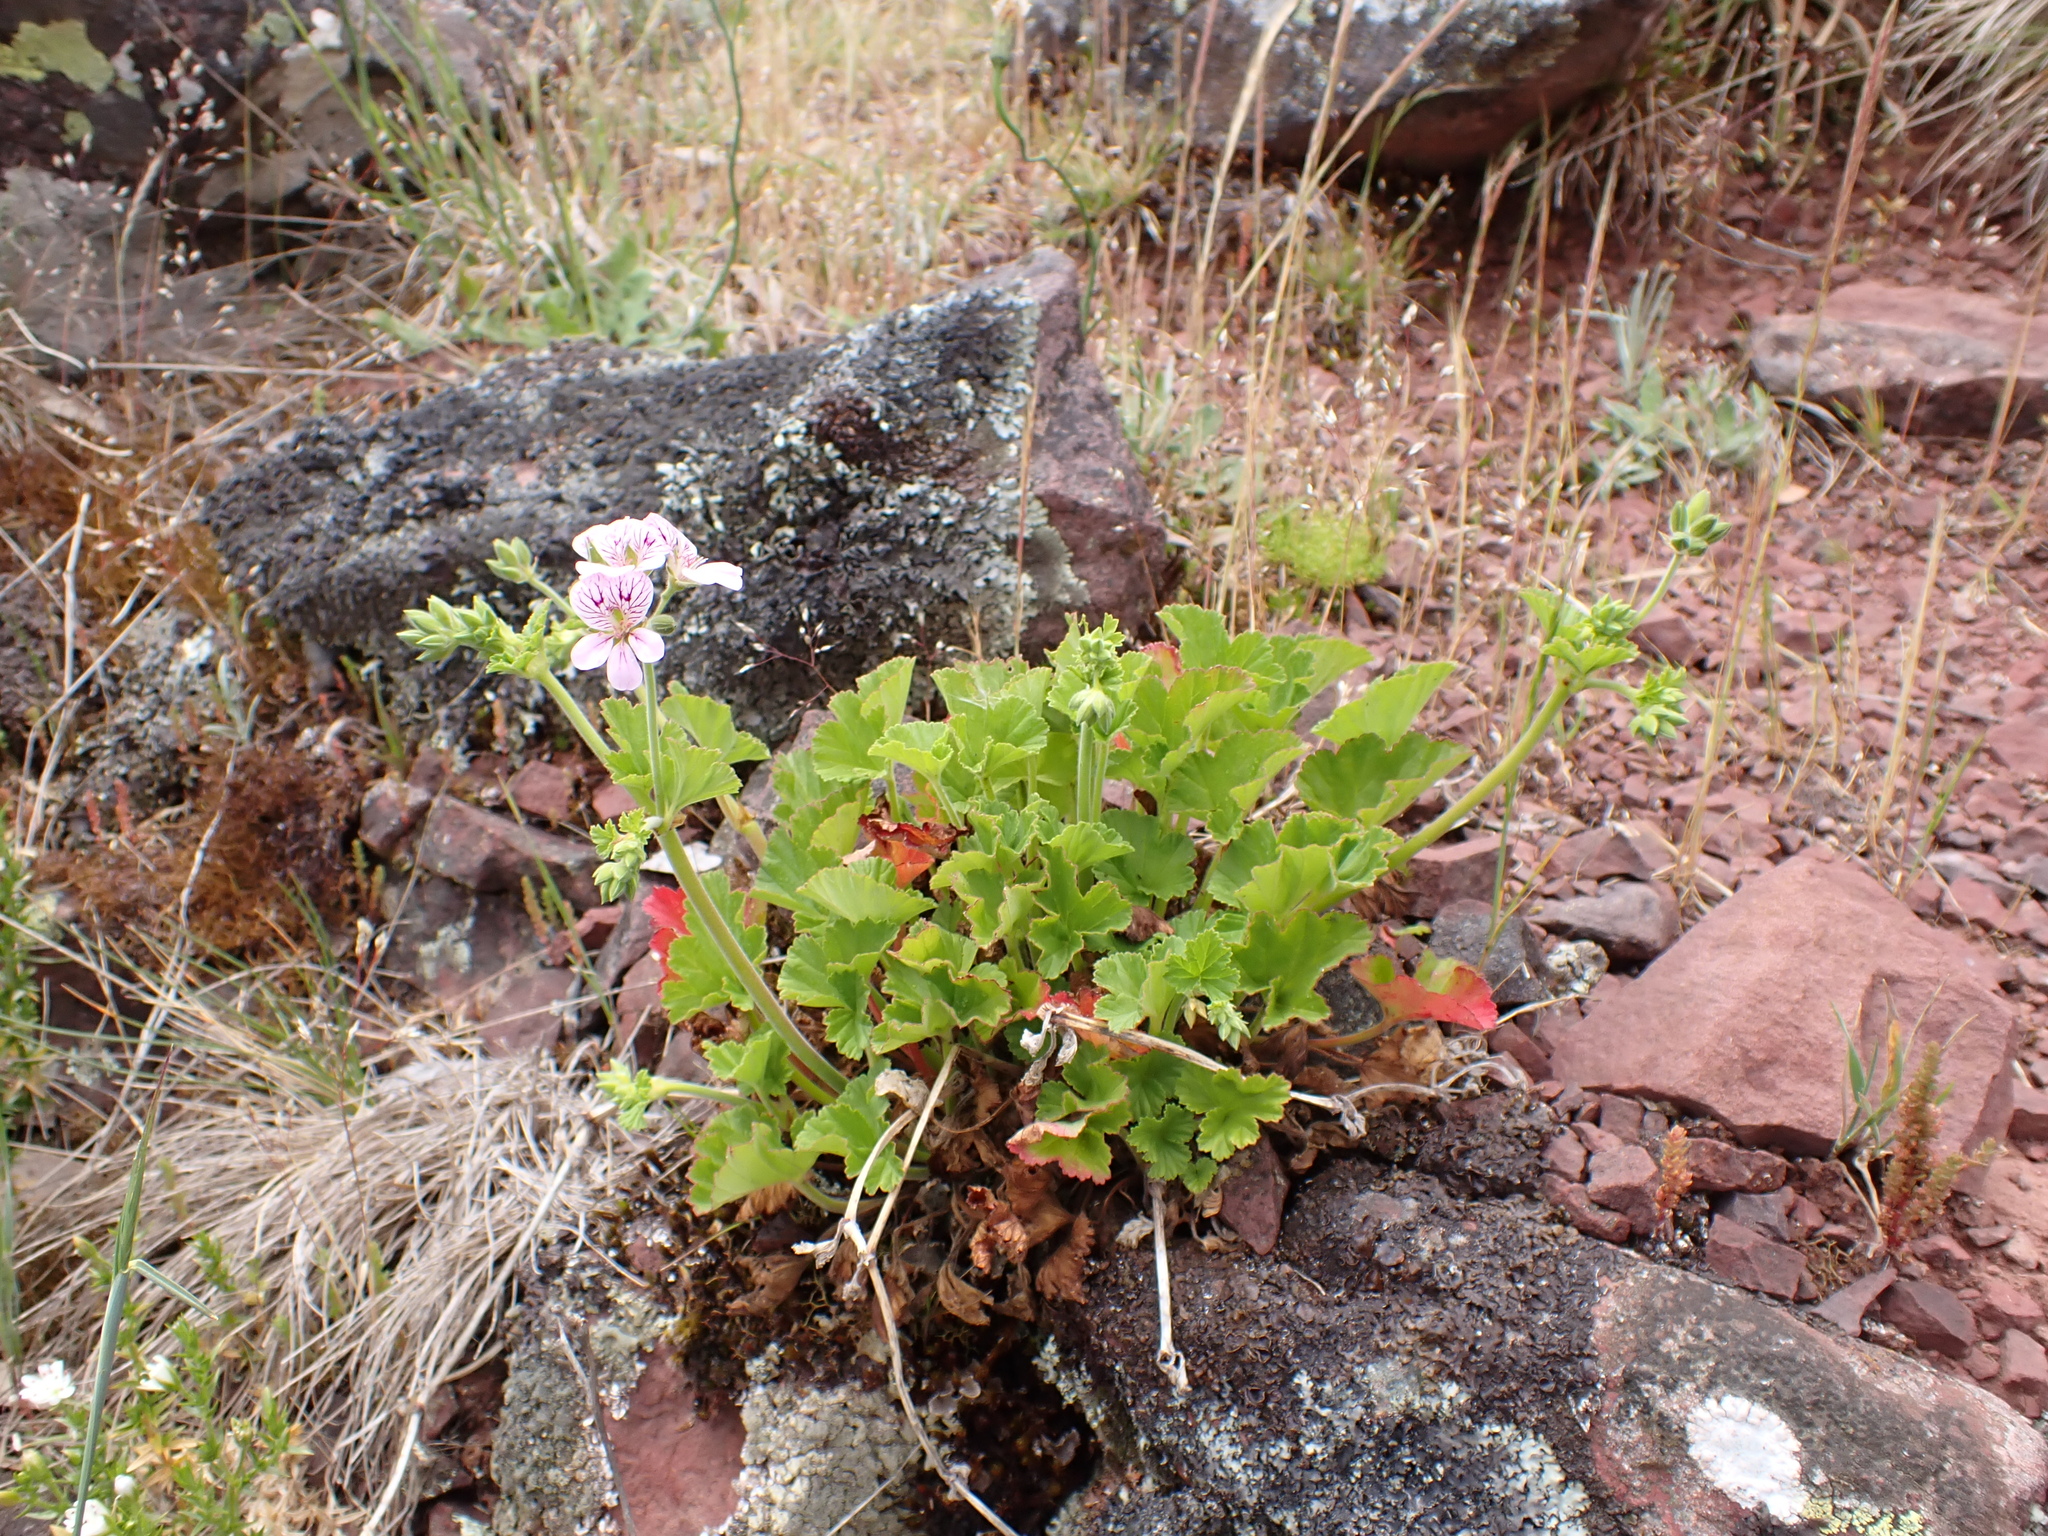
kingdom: Plantae
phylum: Tracheophyta
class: Magnoliopsida
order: Geraniales
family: Geraniaceae
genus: Pelargonium
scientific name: Pelargonium australe
